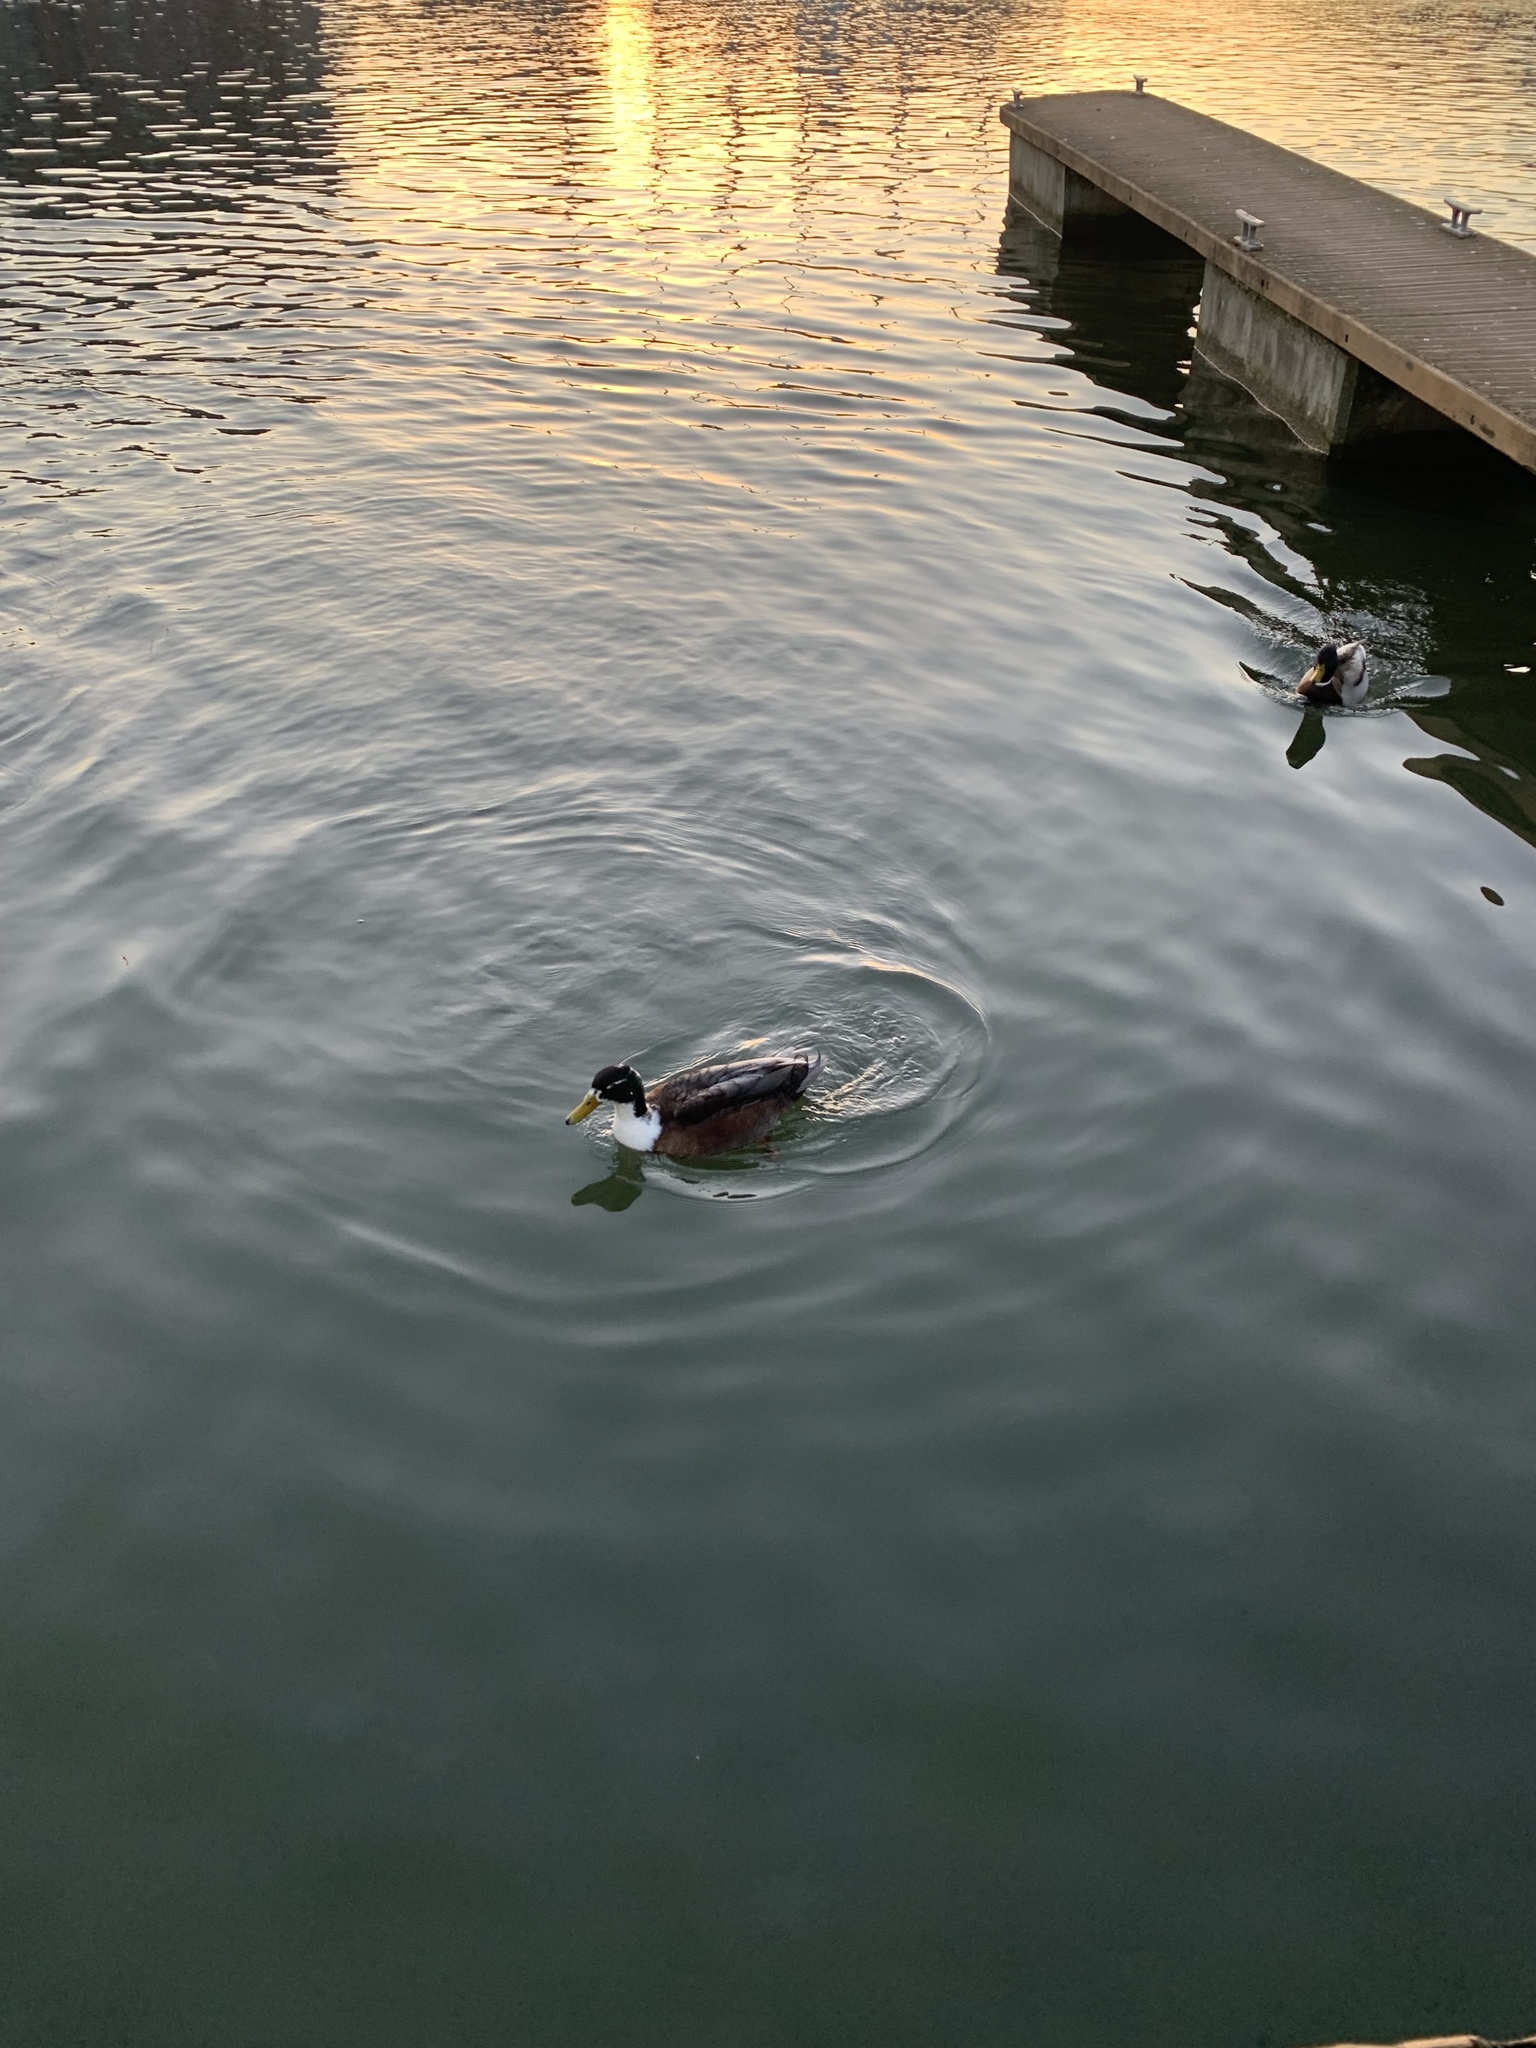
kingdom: Animalia
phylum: Chordata
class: Aves
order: Anseriformes
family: Anatidae
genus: Anas
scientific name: Anas platyrhynchos
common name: Mallard
